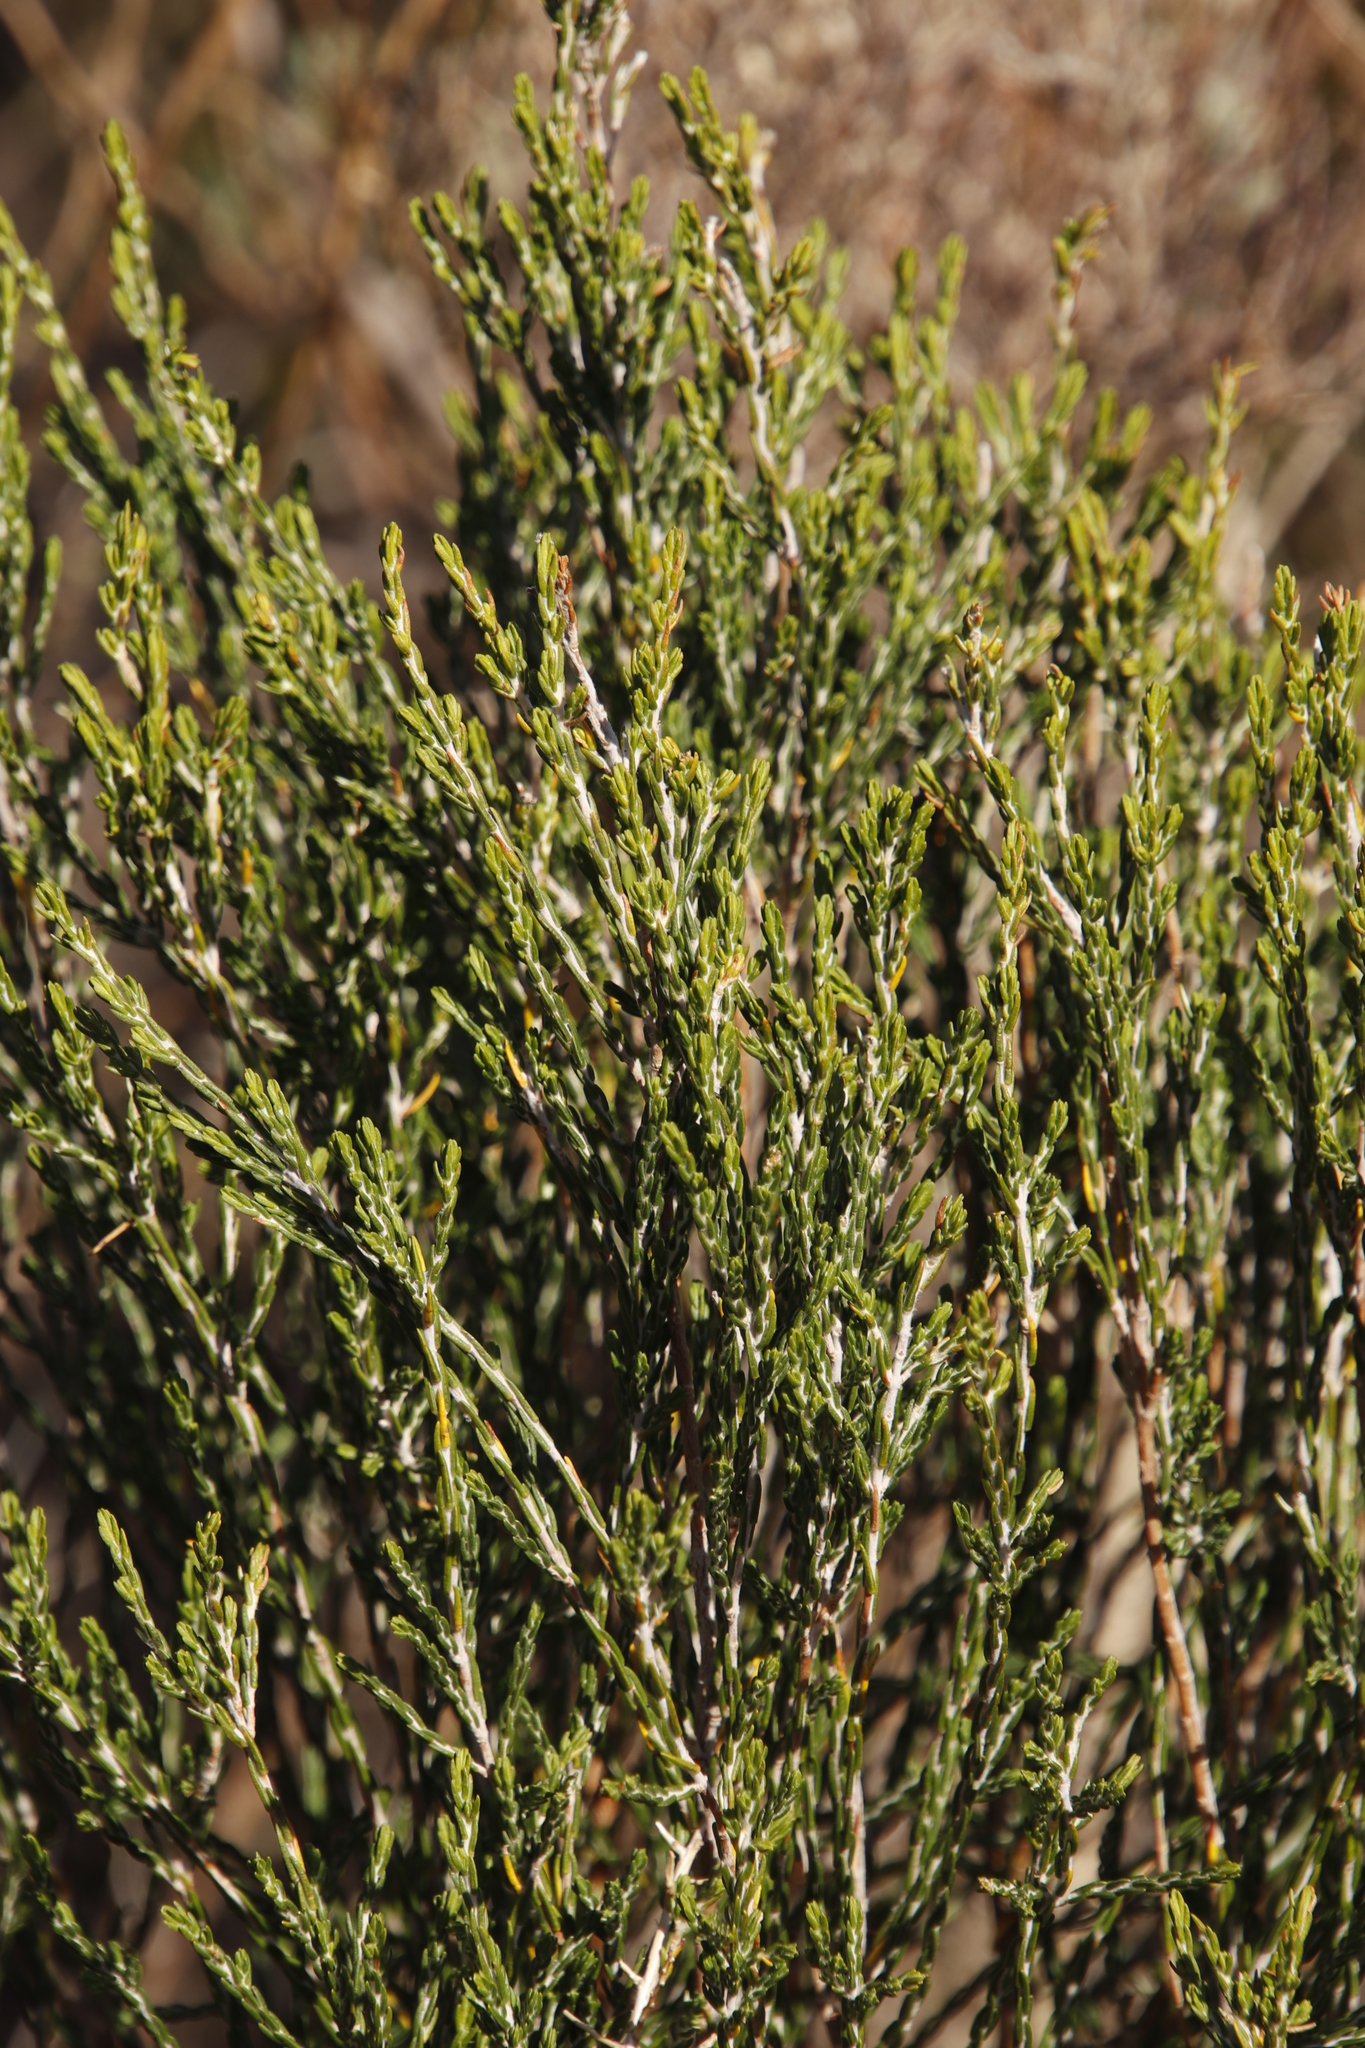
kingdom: Plantae
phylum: Tracheophyta
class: Magnoliopsida
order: Malvales
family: Thymelaeaceae
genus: Passerina
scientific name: Passerina corymbosa
